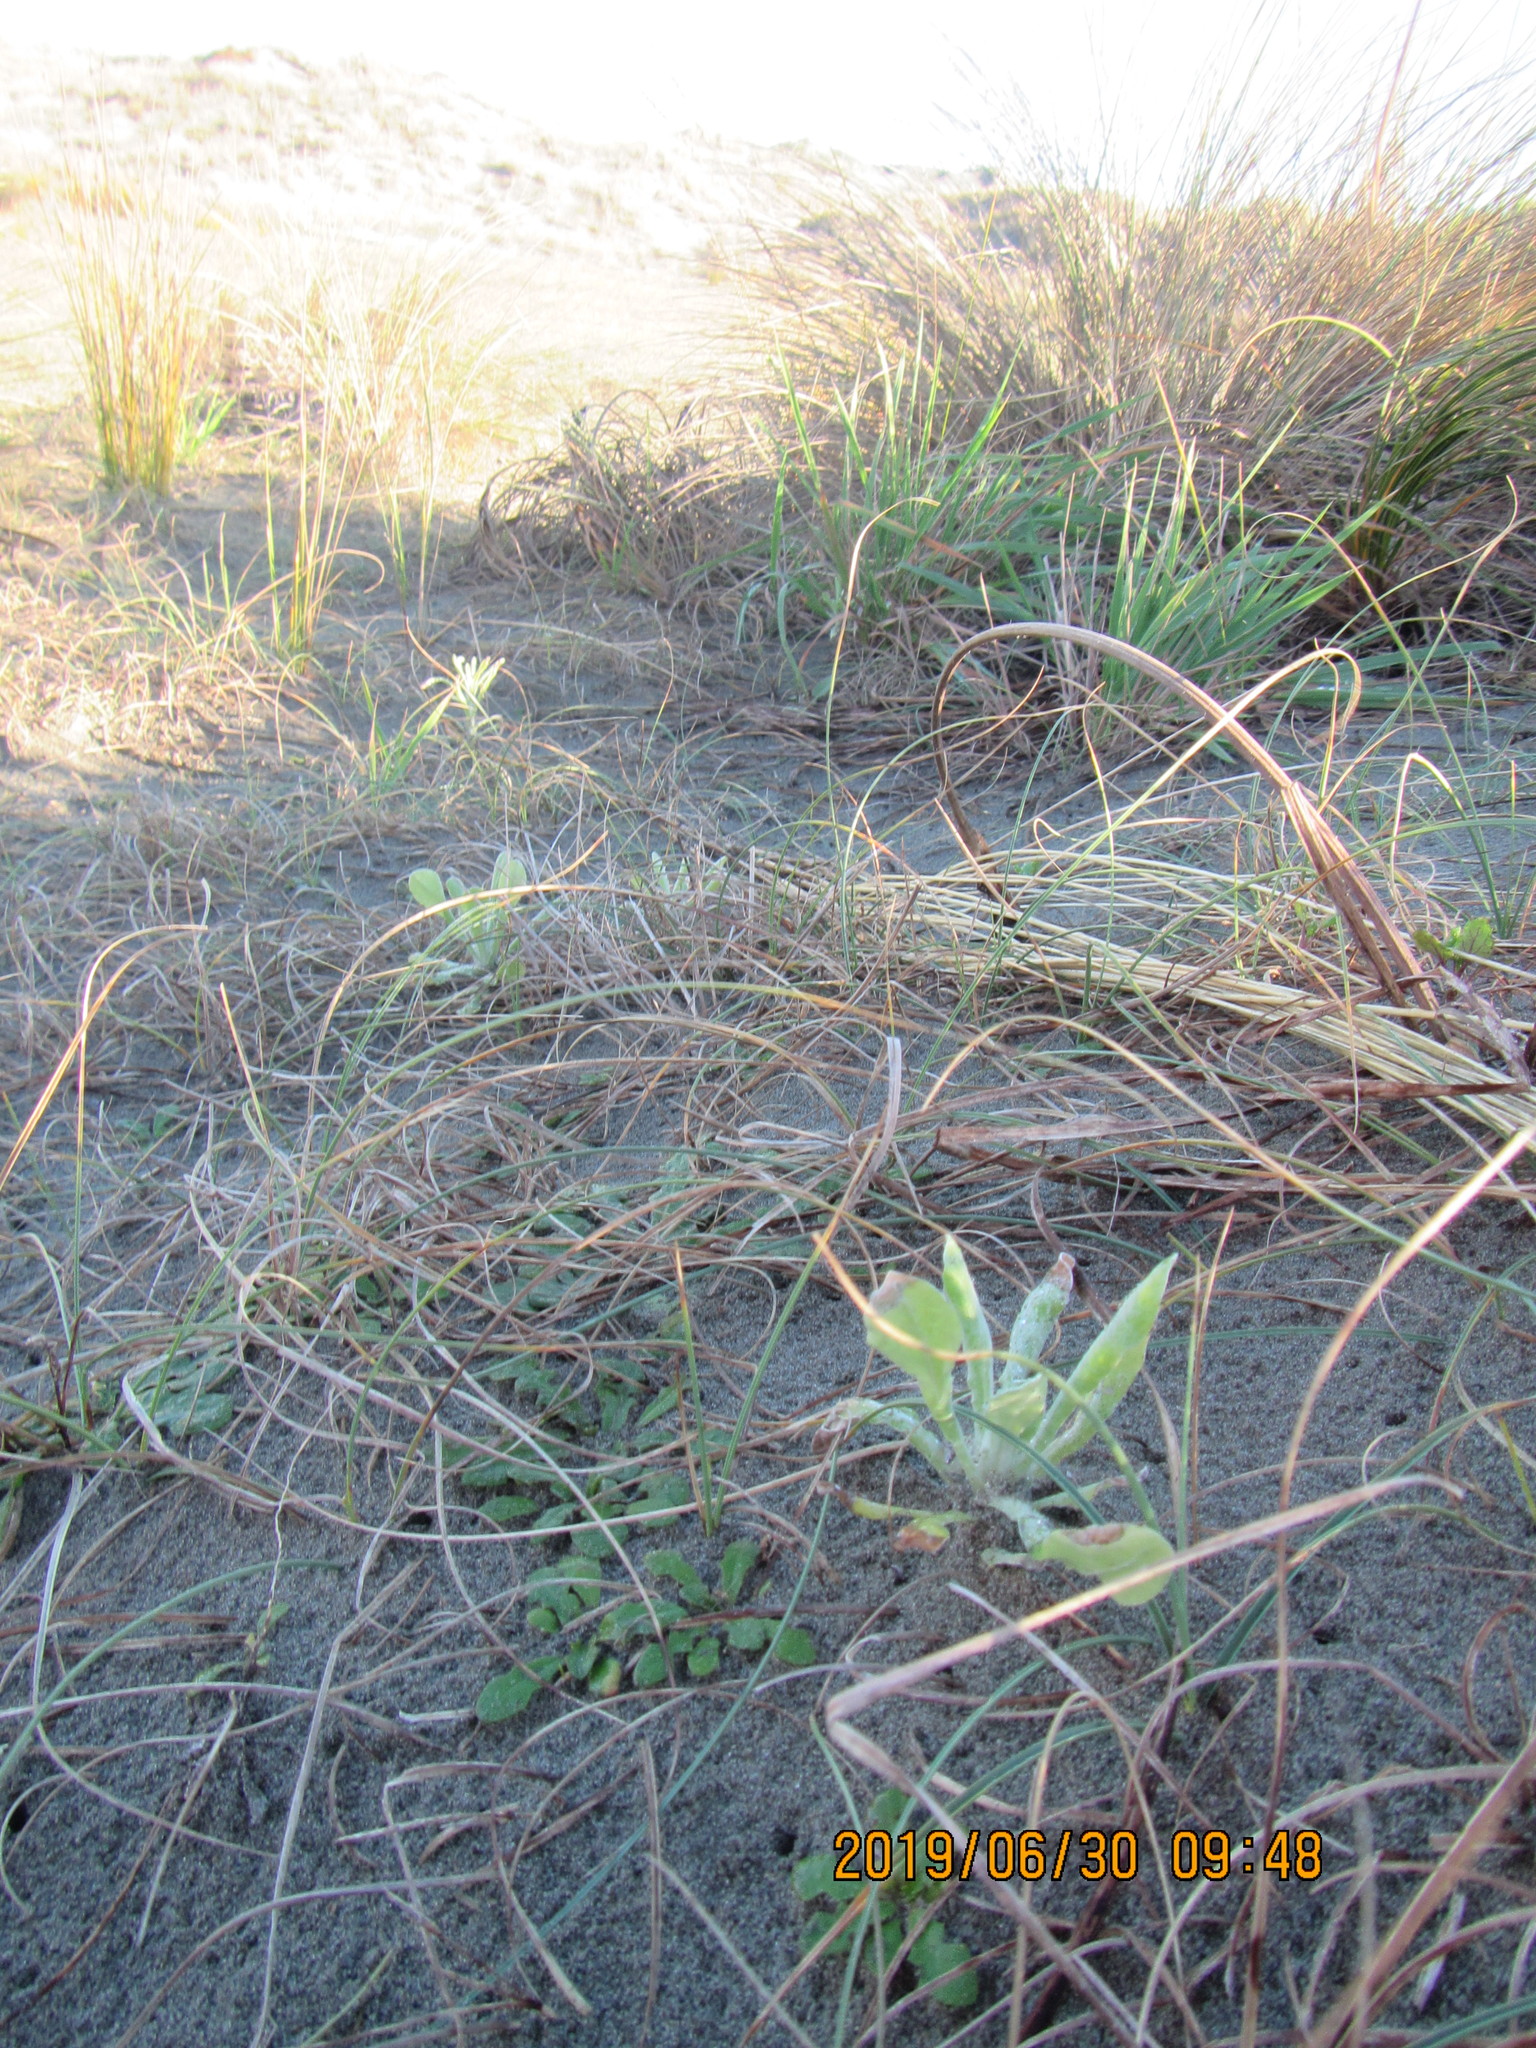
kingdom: Plantae
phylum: Tracheophyta
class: Magnoliopsida
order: Asterales
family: Asteraceae
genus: Helichrysum
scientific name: Helichrysum luteoalbum
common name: Daisy
